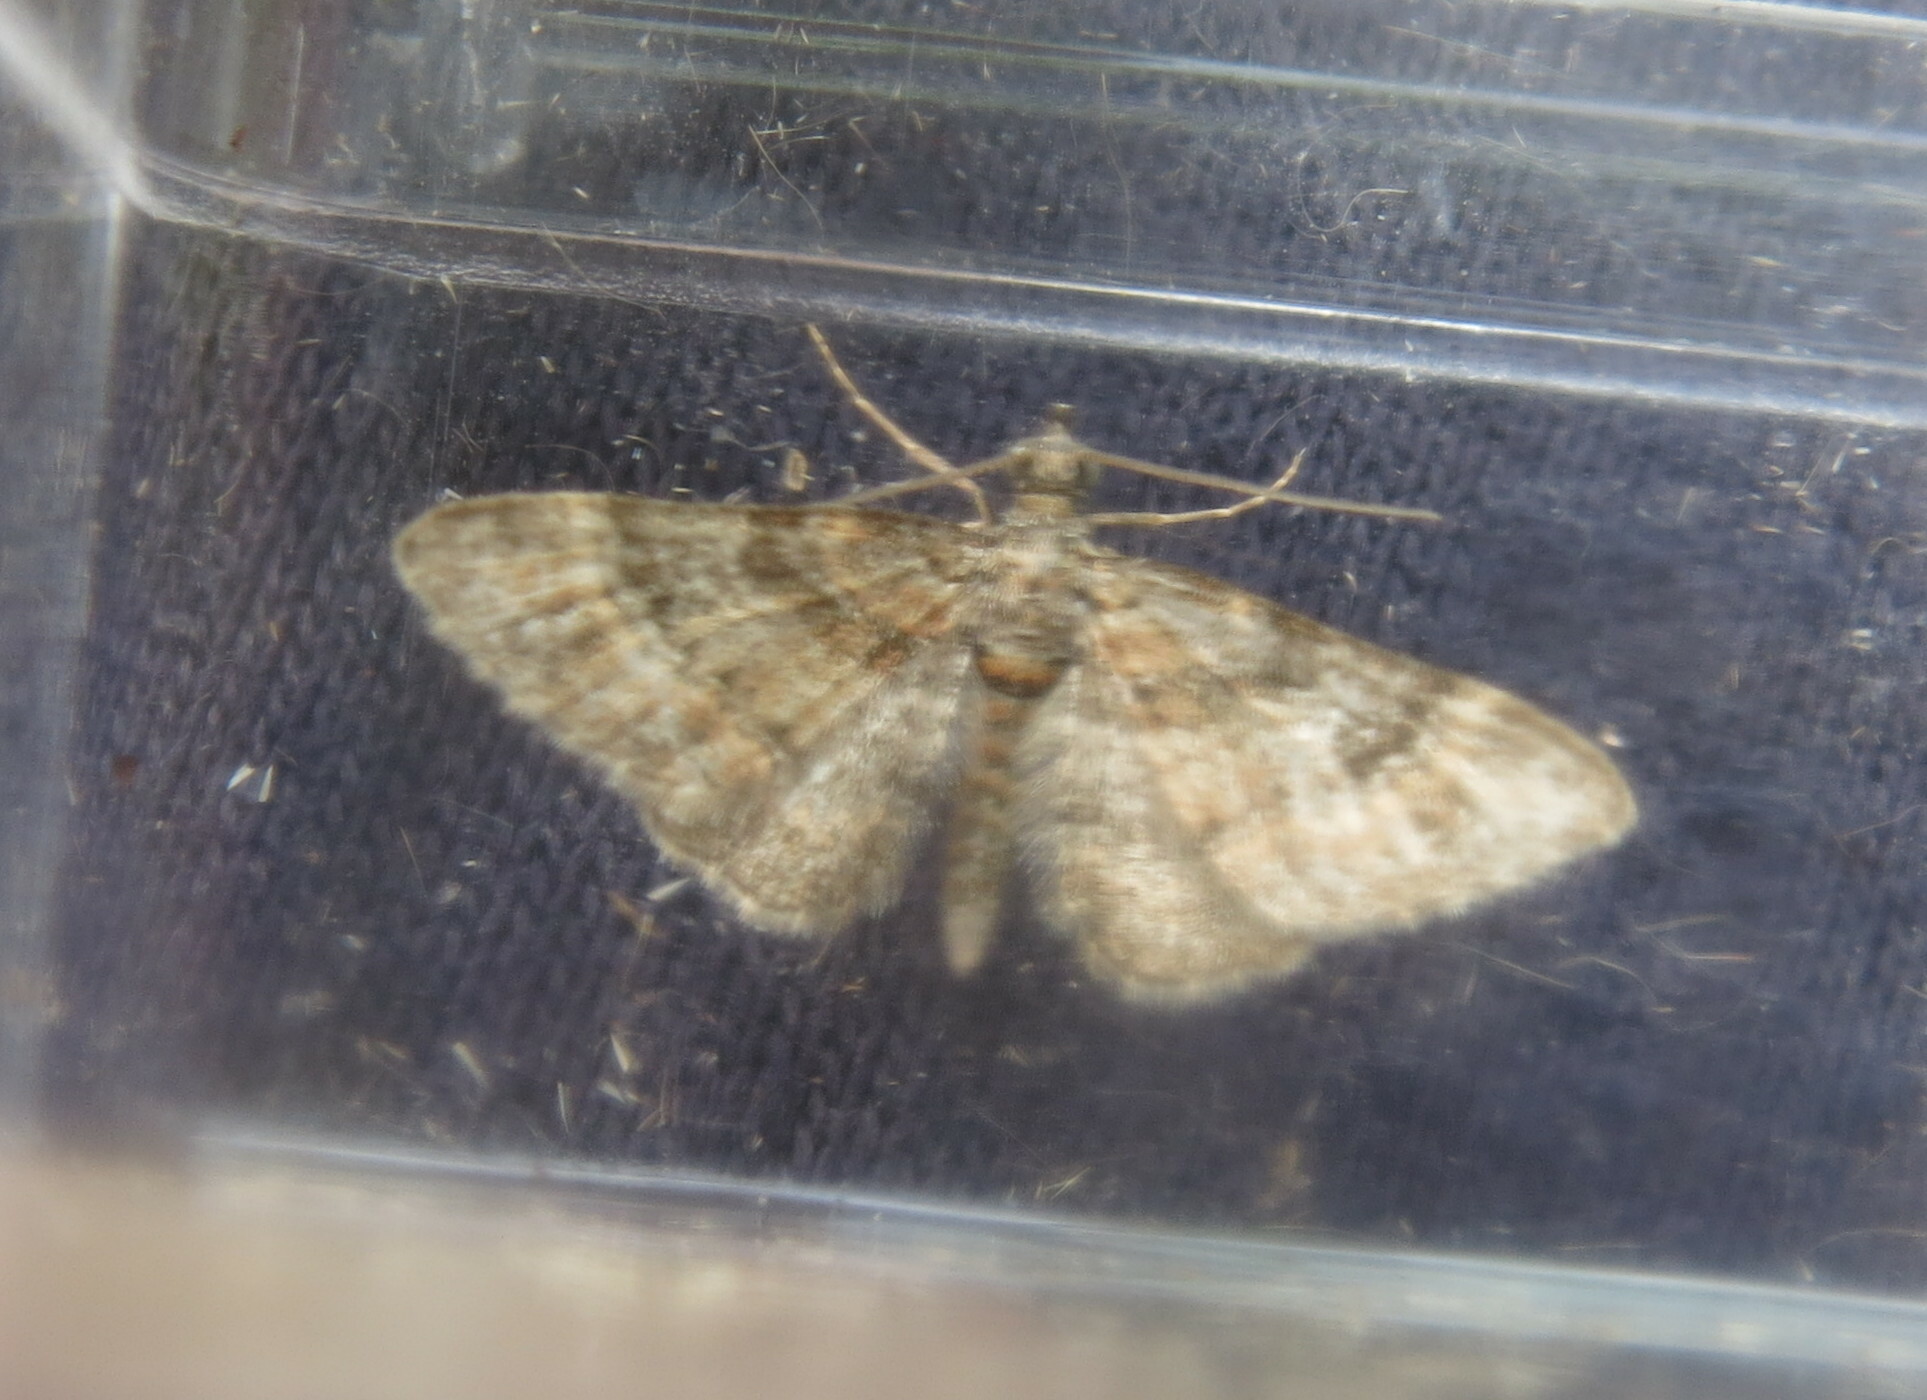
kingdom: Animalia
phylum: Arthropoda
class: Insecta
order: Lepidoptera
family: Geometridae
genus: Gymnoscelis
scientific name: Gymnoscelis rufifasciata
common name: Double-striped pug
